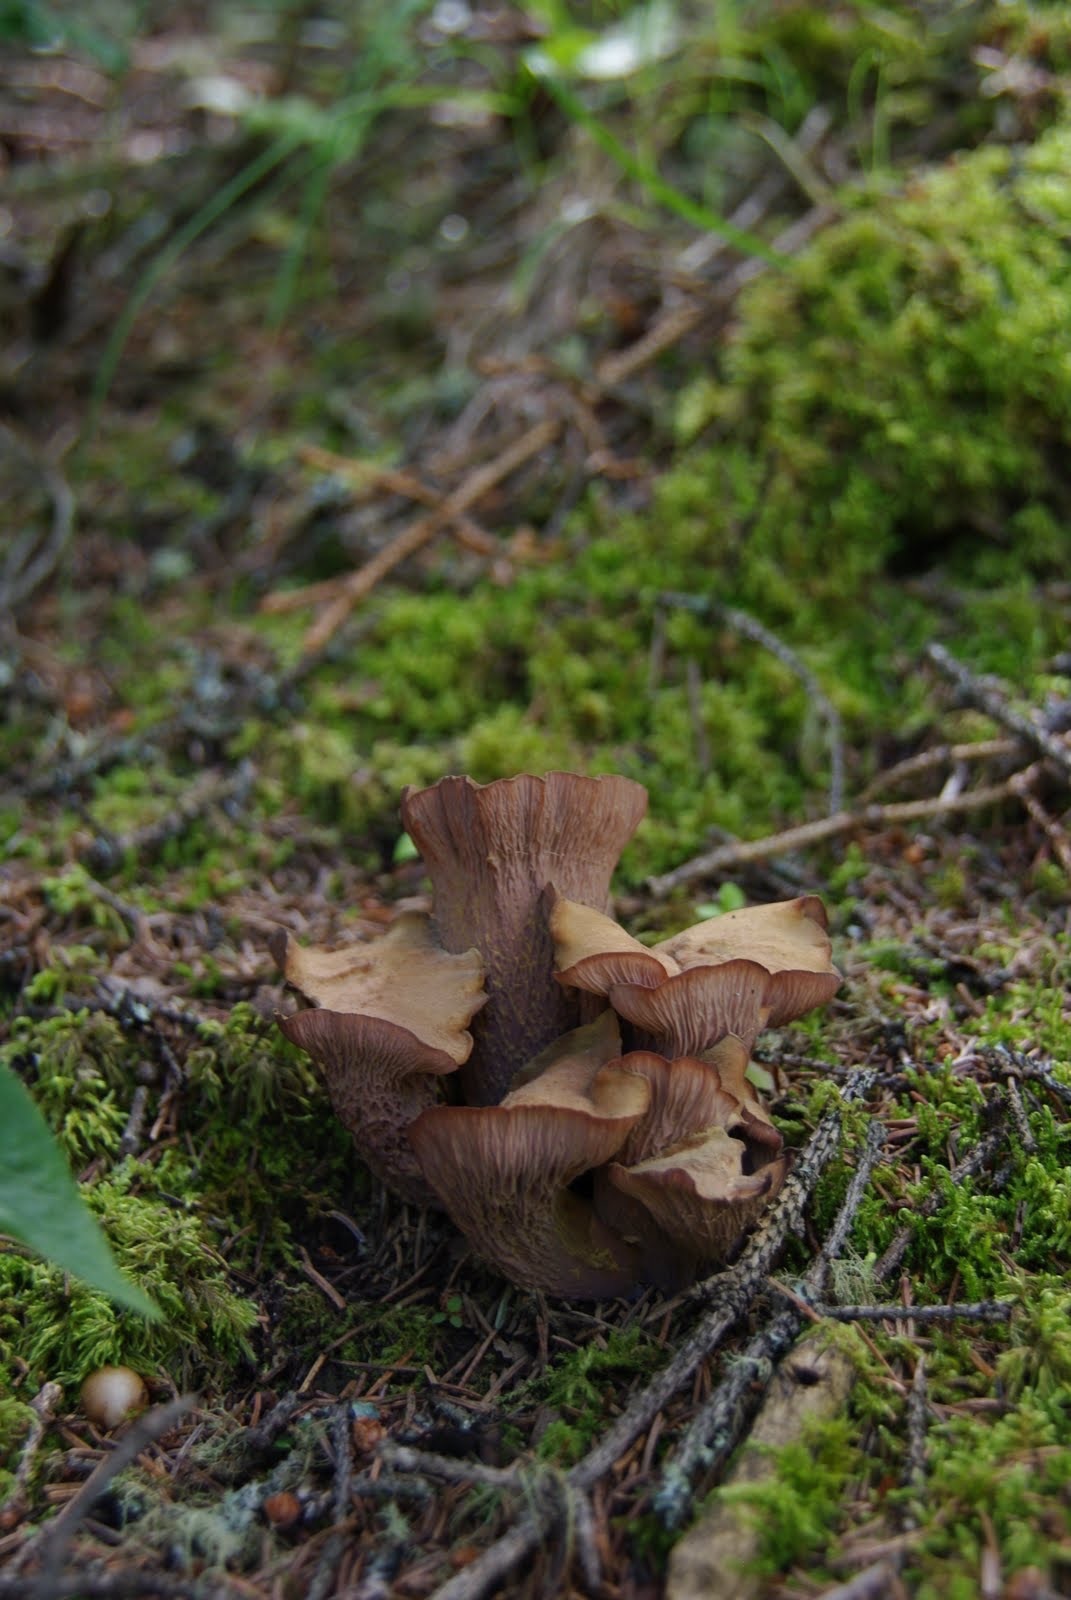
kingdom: Fungi
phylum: Basidiomycota
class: Agaricomycetes
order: Gomphales
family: Gomphaceae
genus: Gomphus
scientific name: Gomphus clavatus
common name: Pig's ear
